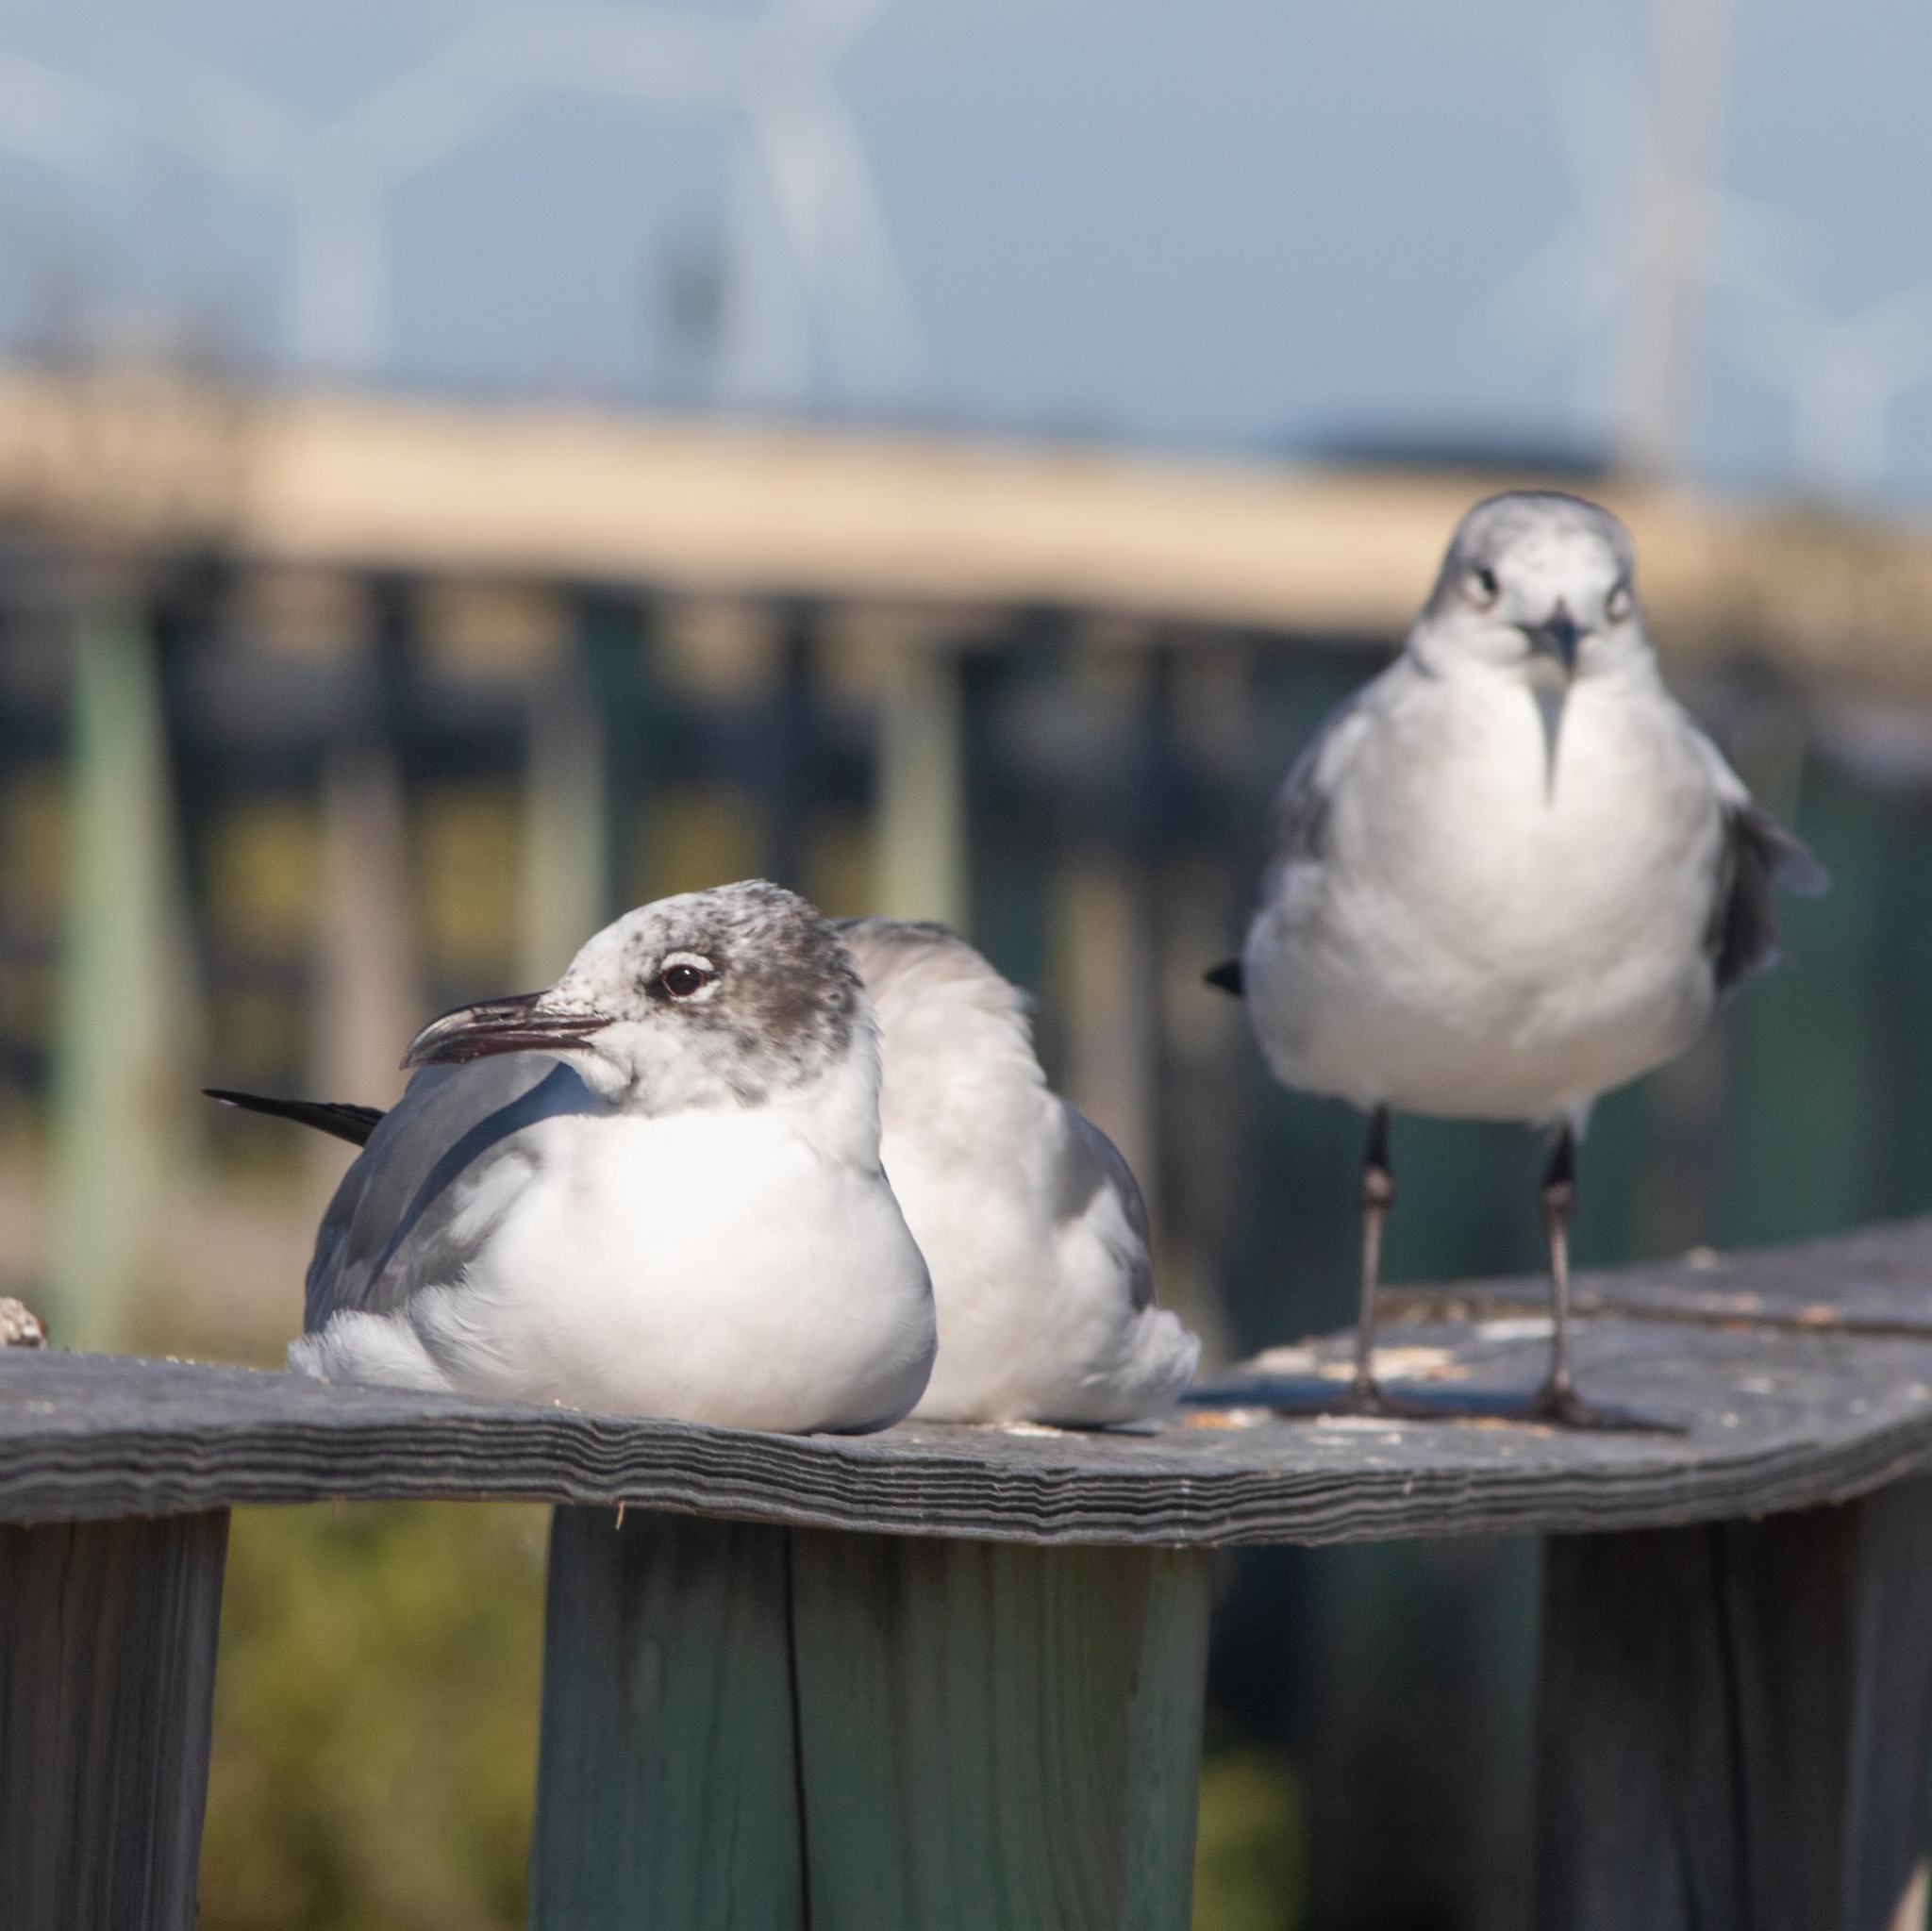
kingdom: Animalia
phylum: Chordata
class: Aves
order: Charadriiformes
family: Laridae
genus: Leucophaeus
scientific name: Leucophaeus atricilla
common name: Laughing gull
